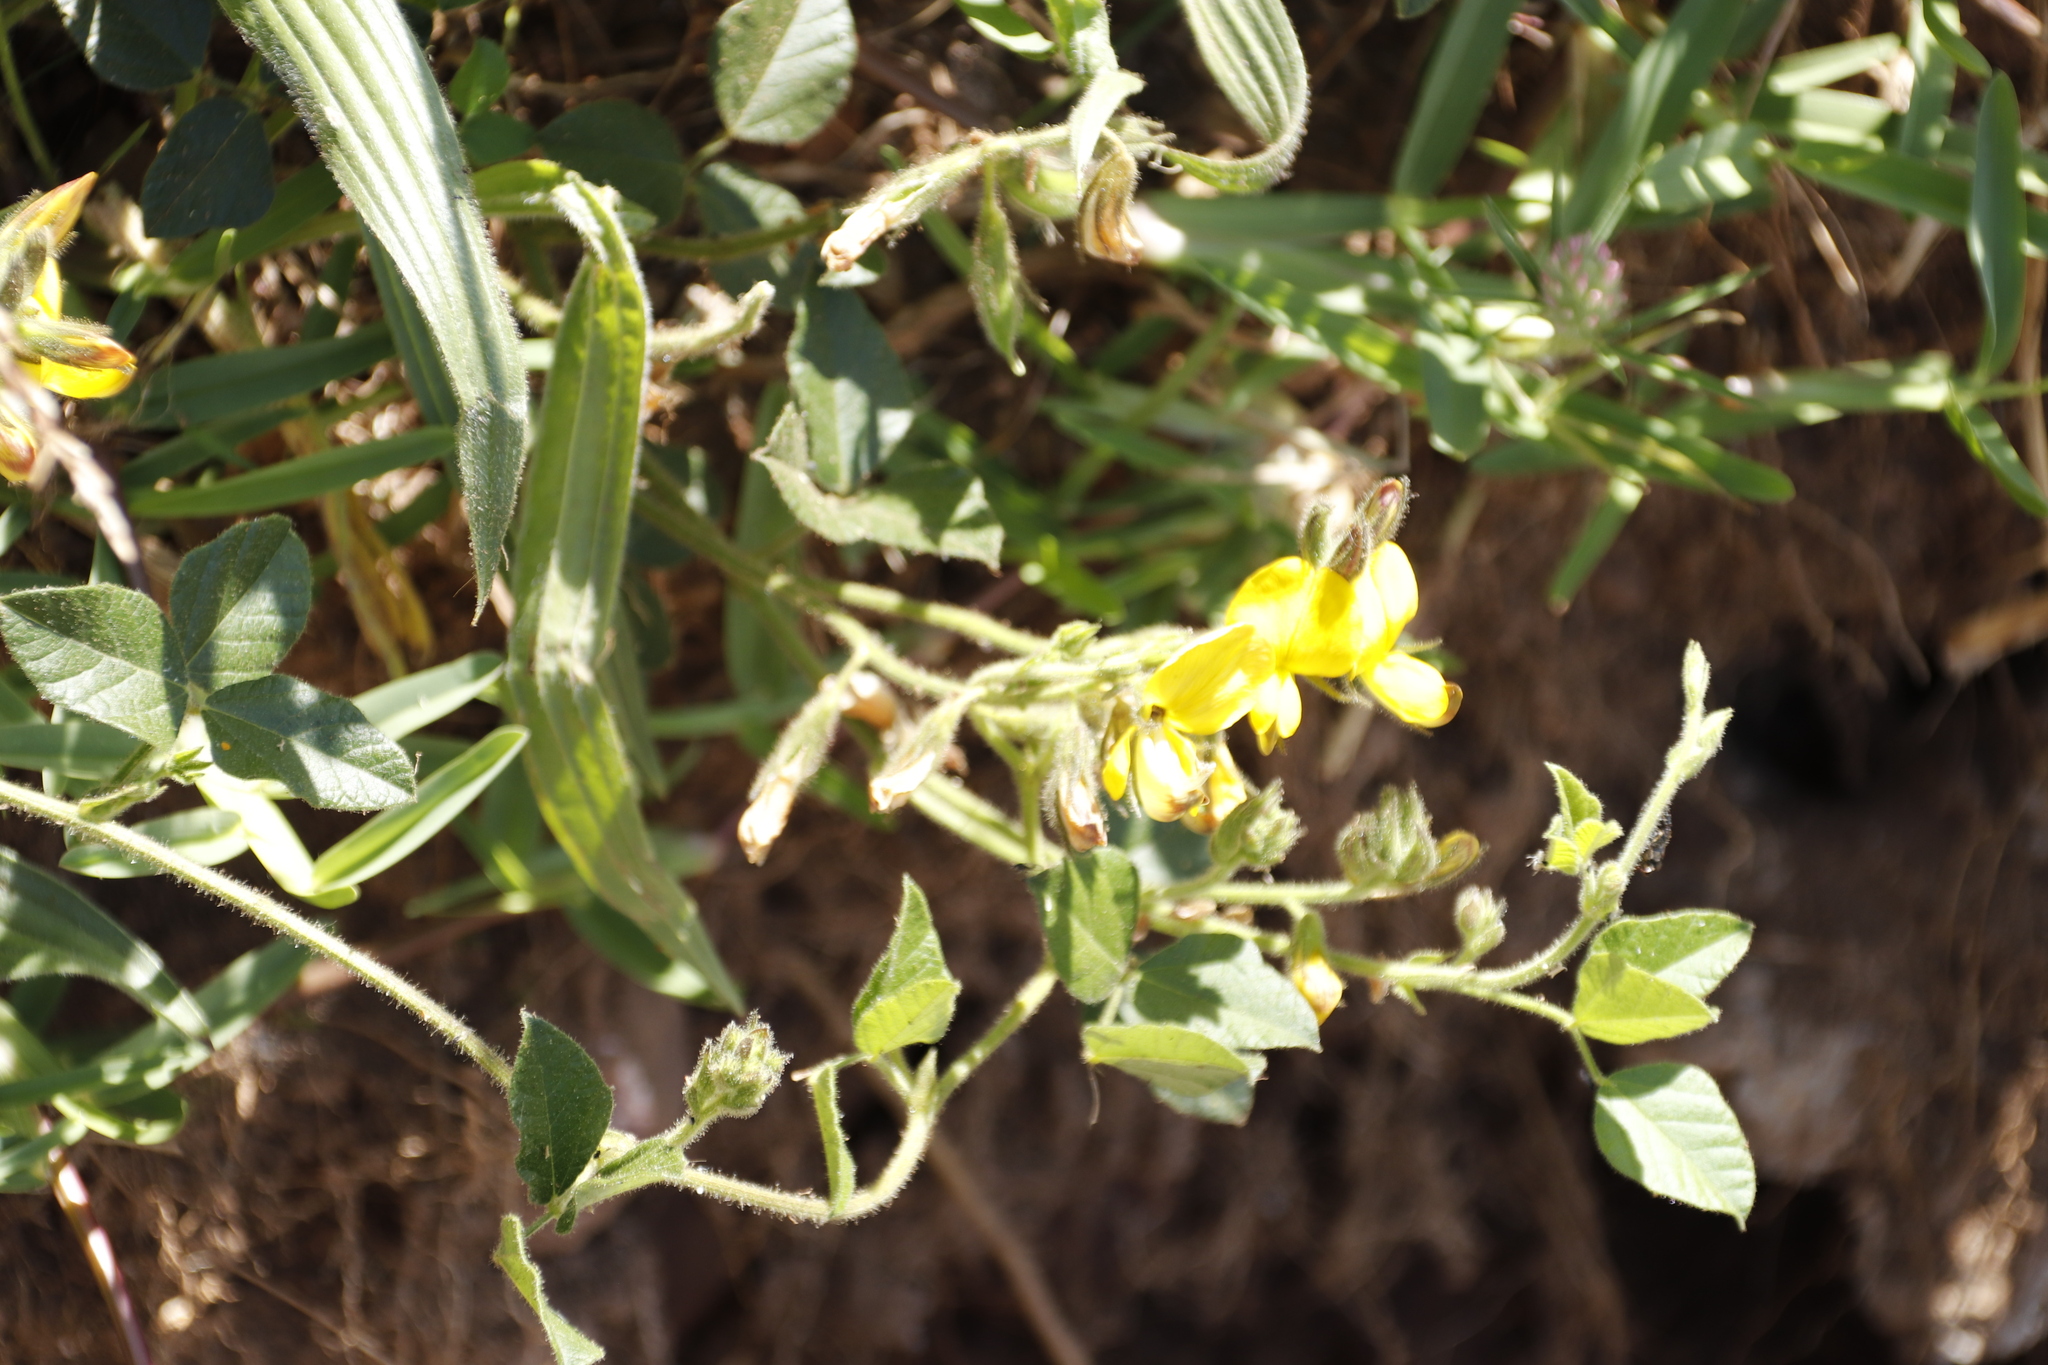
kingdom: Plantae
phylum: Tracheophyta
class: Magnoliopsida
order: Fabales
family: Fabaceae
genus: Bolusafra
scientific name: Bolusafra bituminosa
